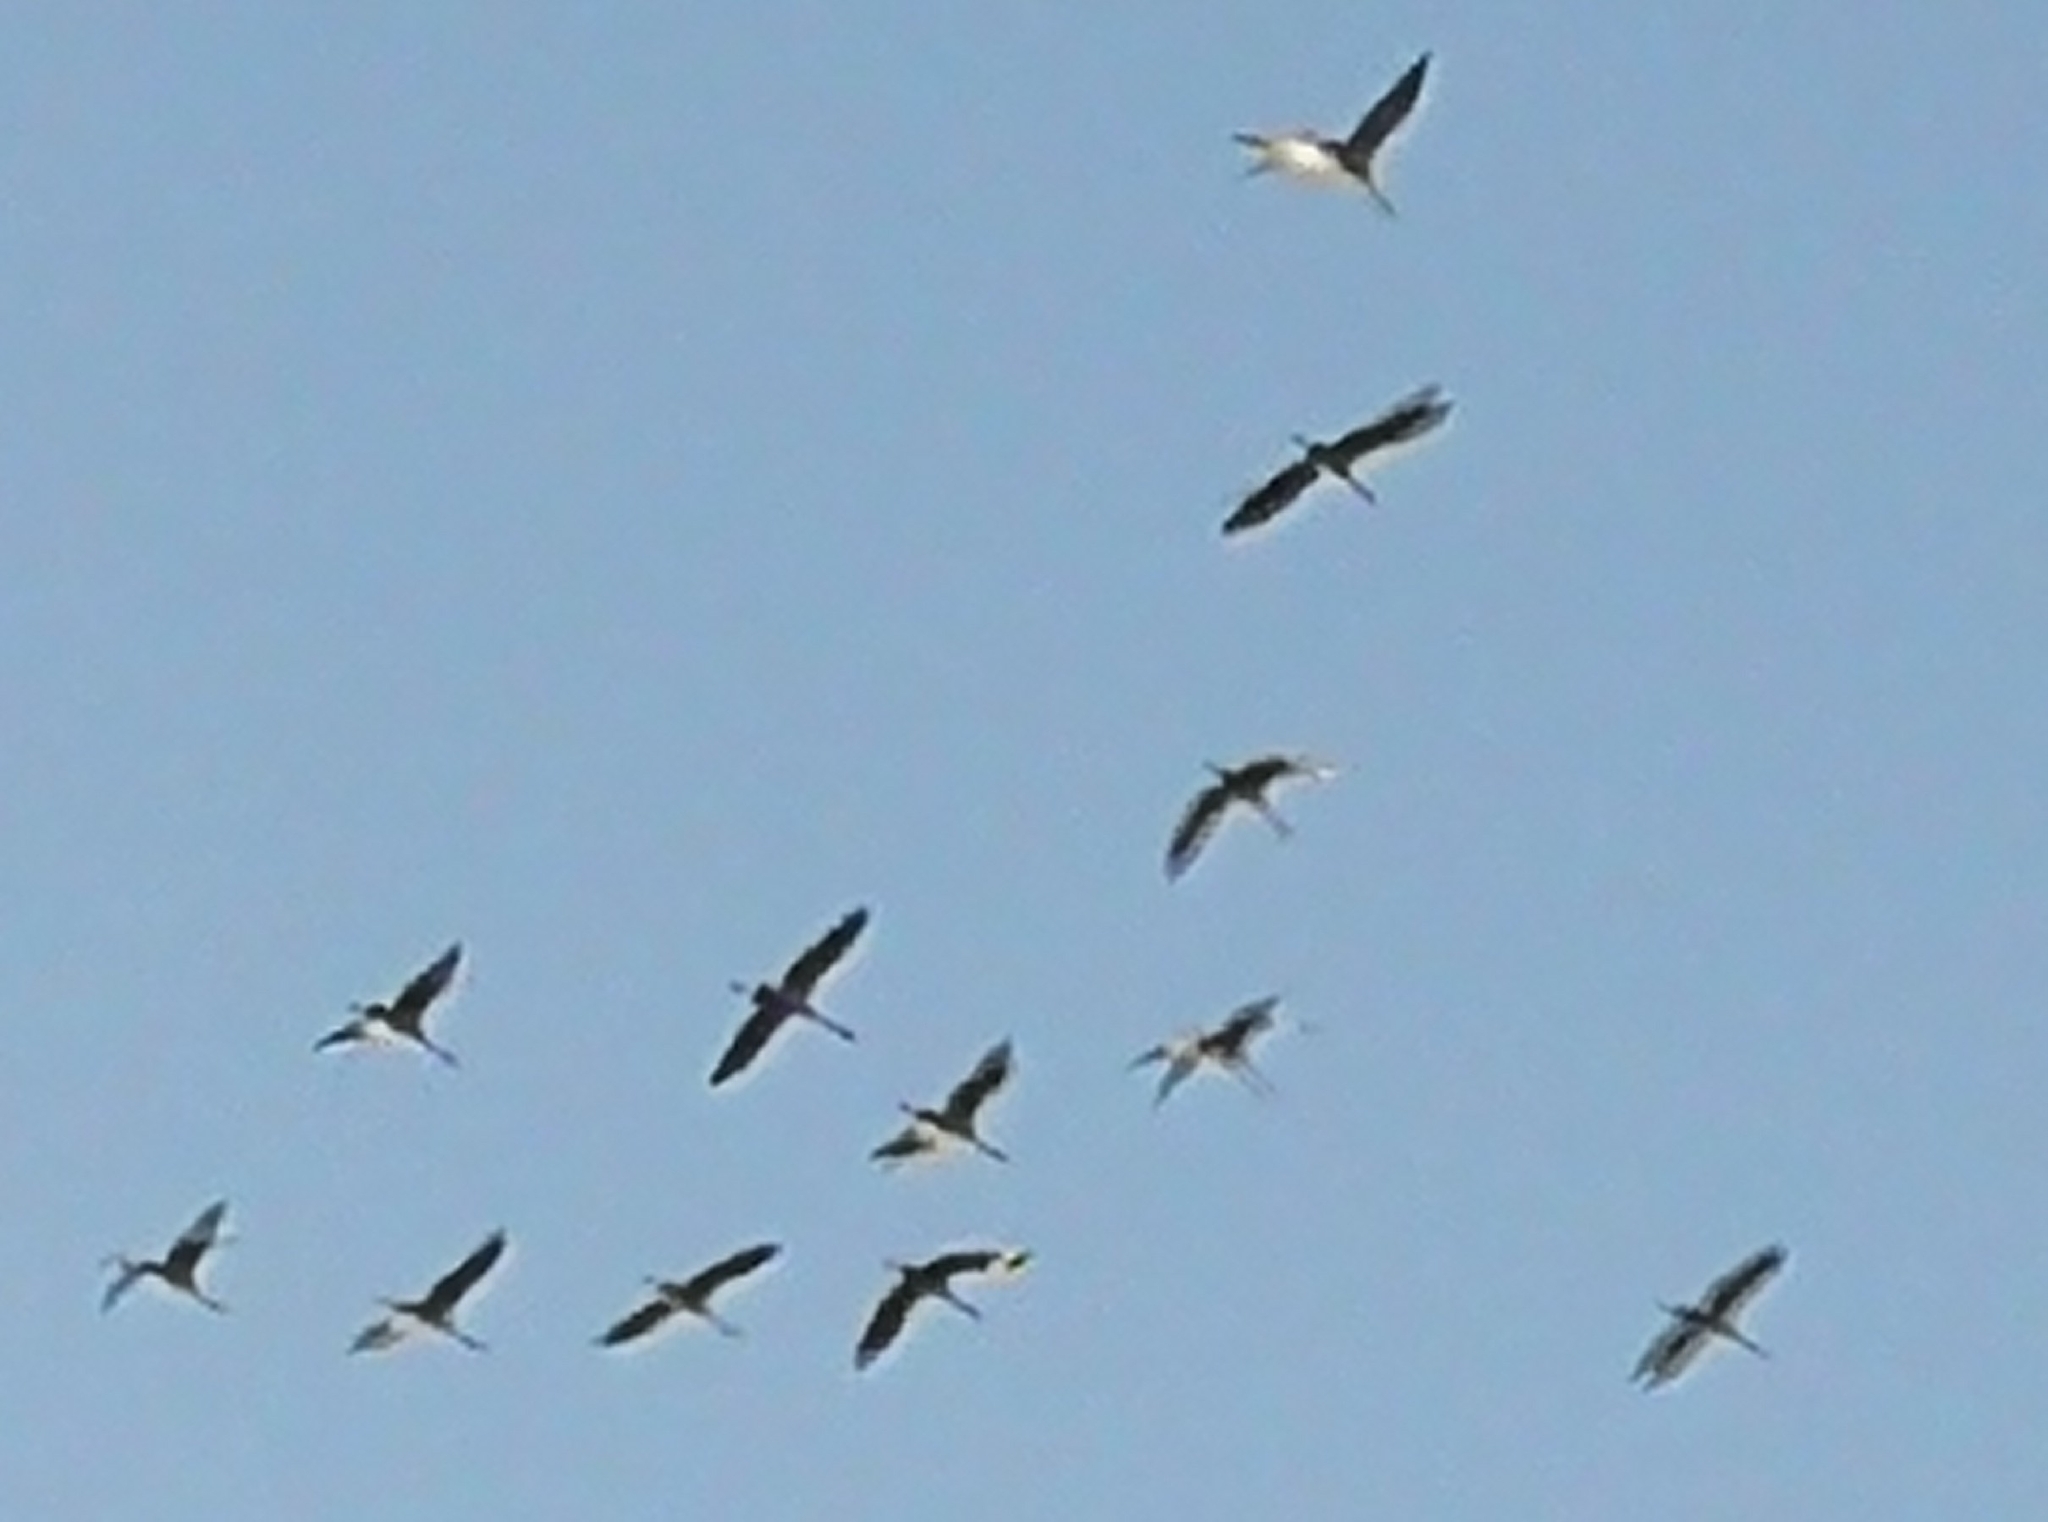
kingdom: Animalia
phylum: Chordata
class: Aves
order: Gruiformes
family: Gruidae
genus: Grus
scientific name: Grus grus
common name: Common crane
